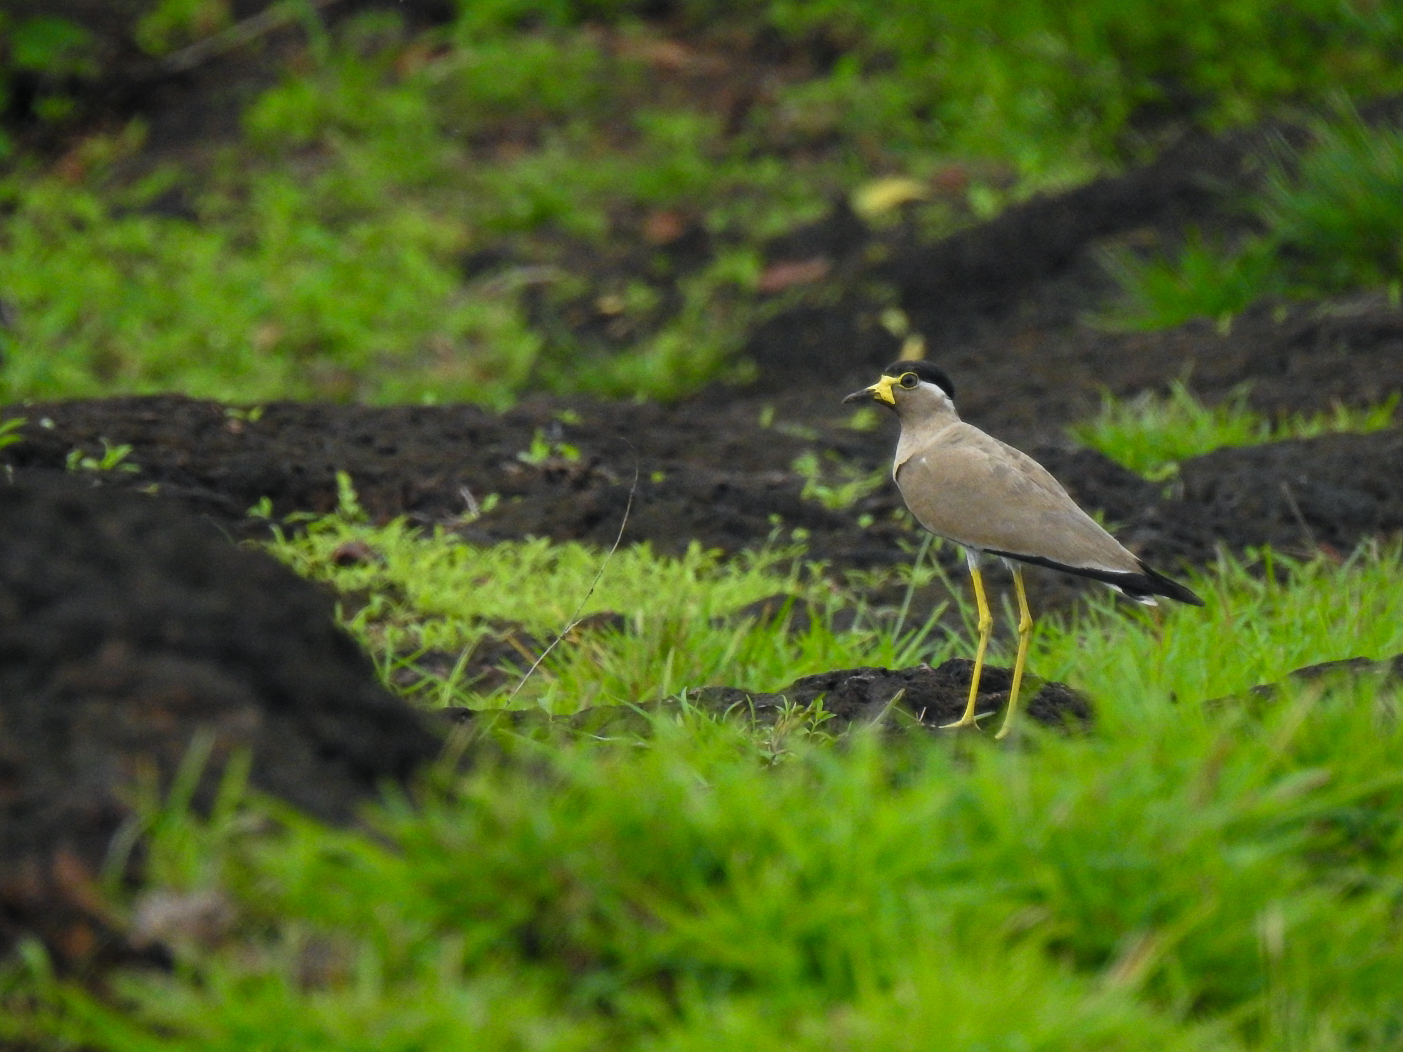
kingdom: Animalia
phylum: Chordata
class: Aves
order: Charadriiformes
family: Charadriidae
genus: Vanellus
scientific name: Vanellus malabaricus
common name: Yellow-wattled lapwing
